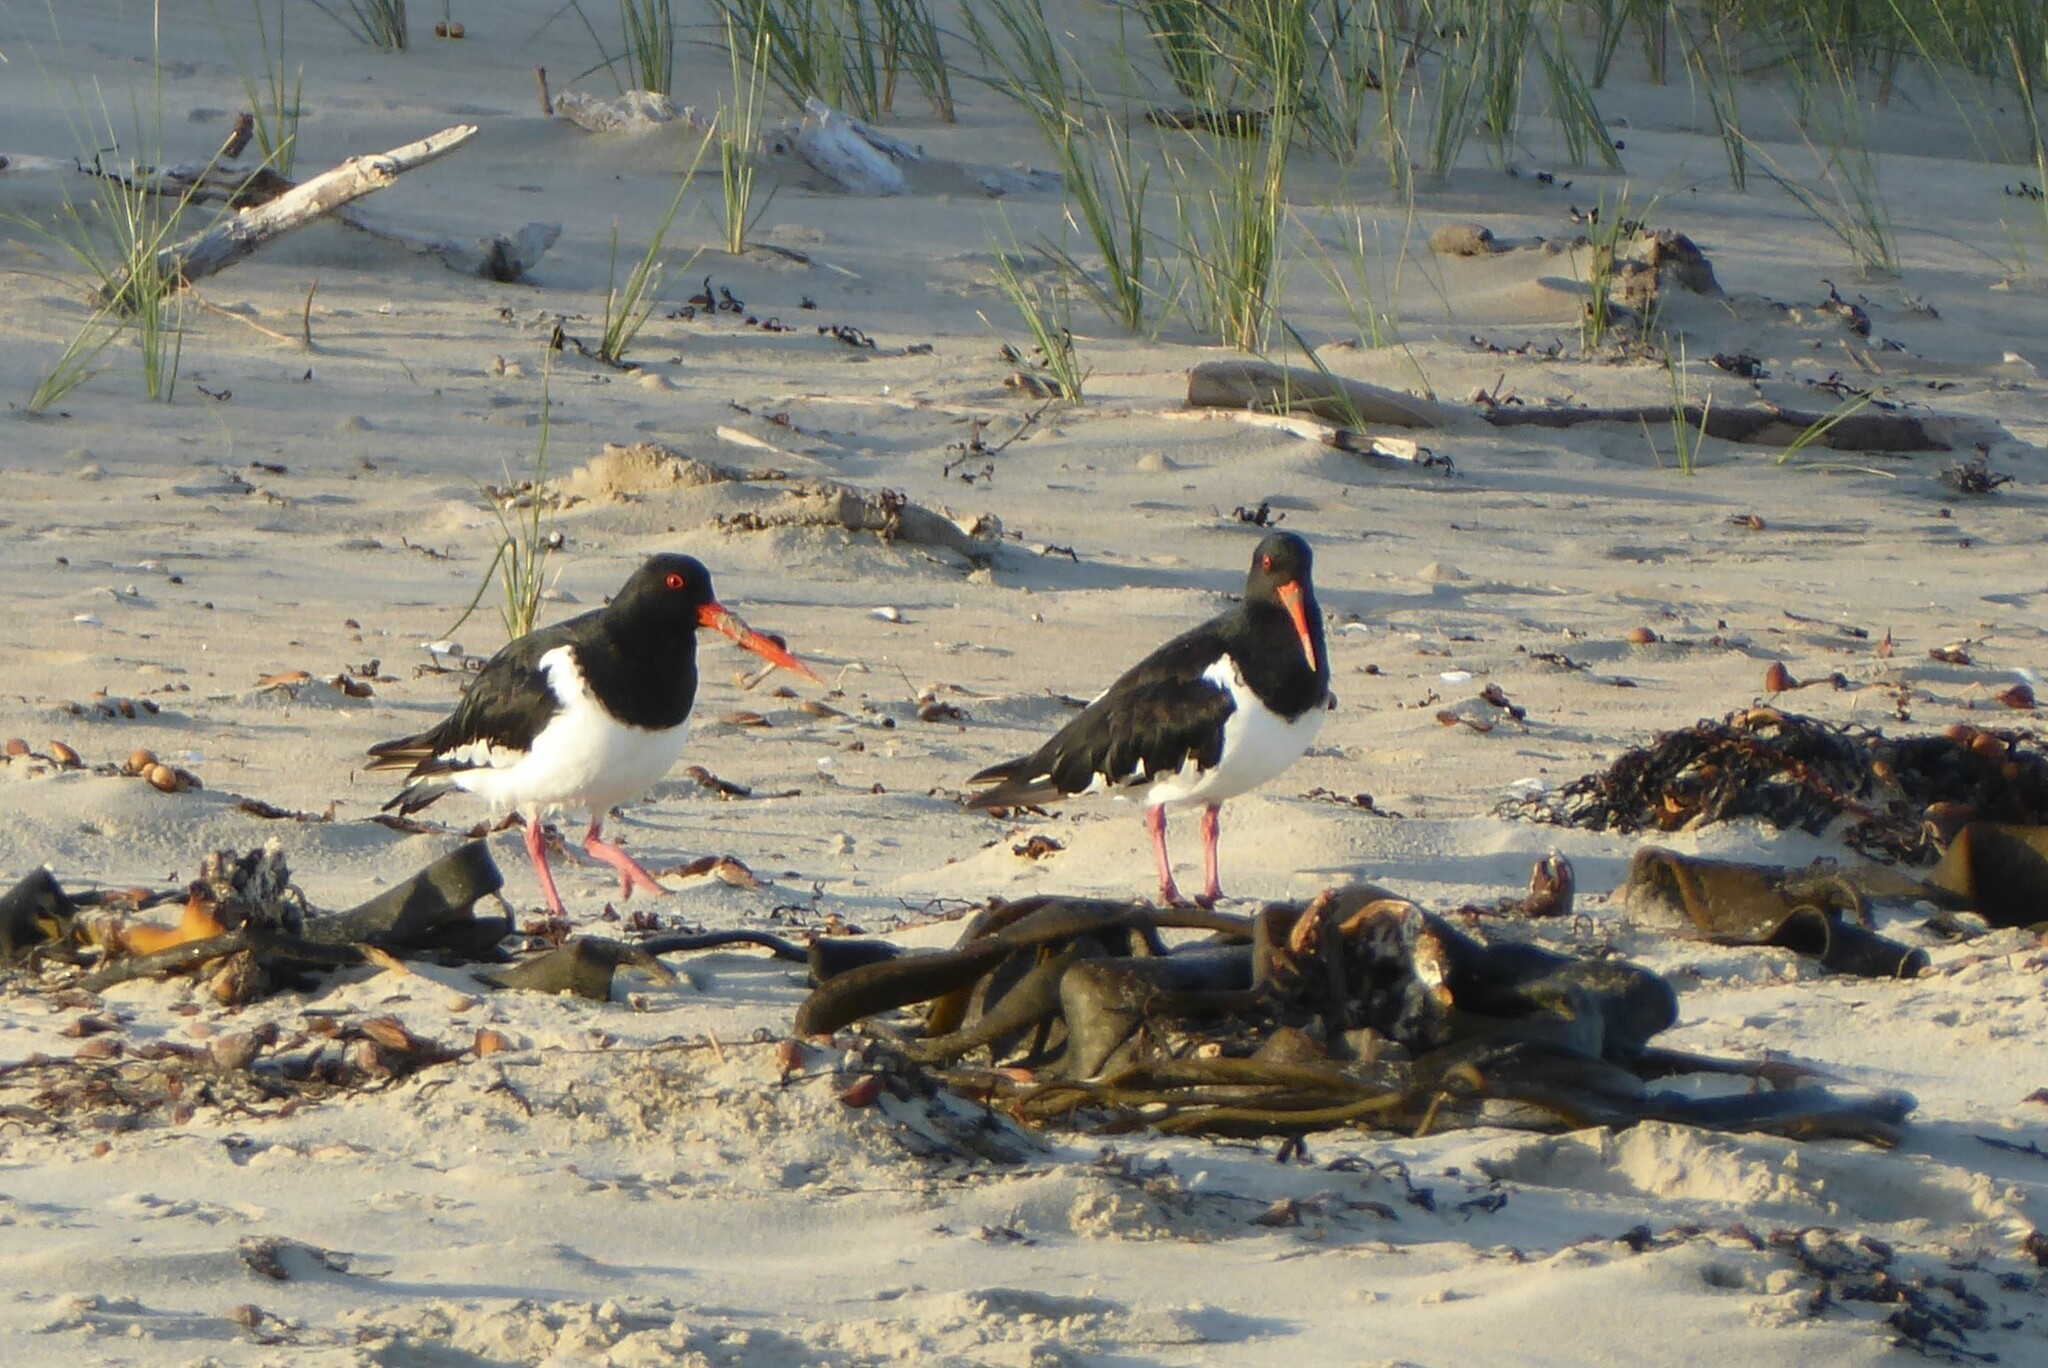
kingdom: Animalia
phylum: Chordata
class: Aves
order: Charadriiformes
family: Haematopodidae
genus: Haematopus
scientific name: Haematopus finschi
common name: South island oystercatcher
